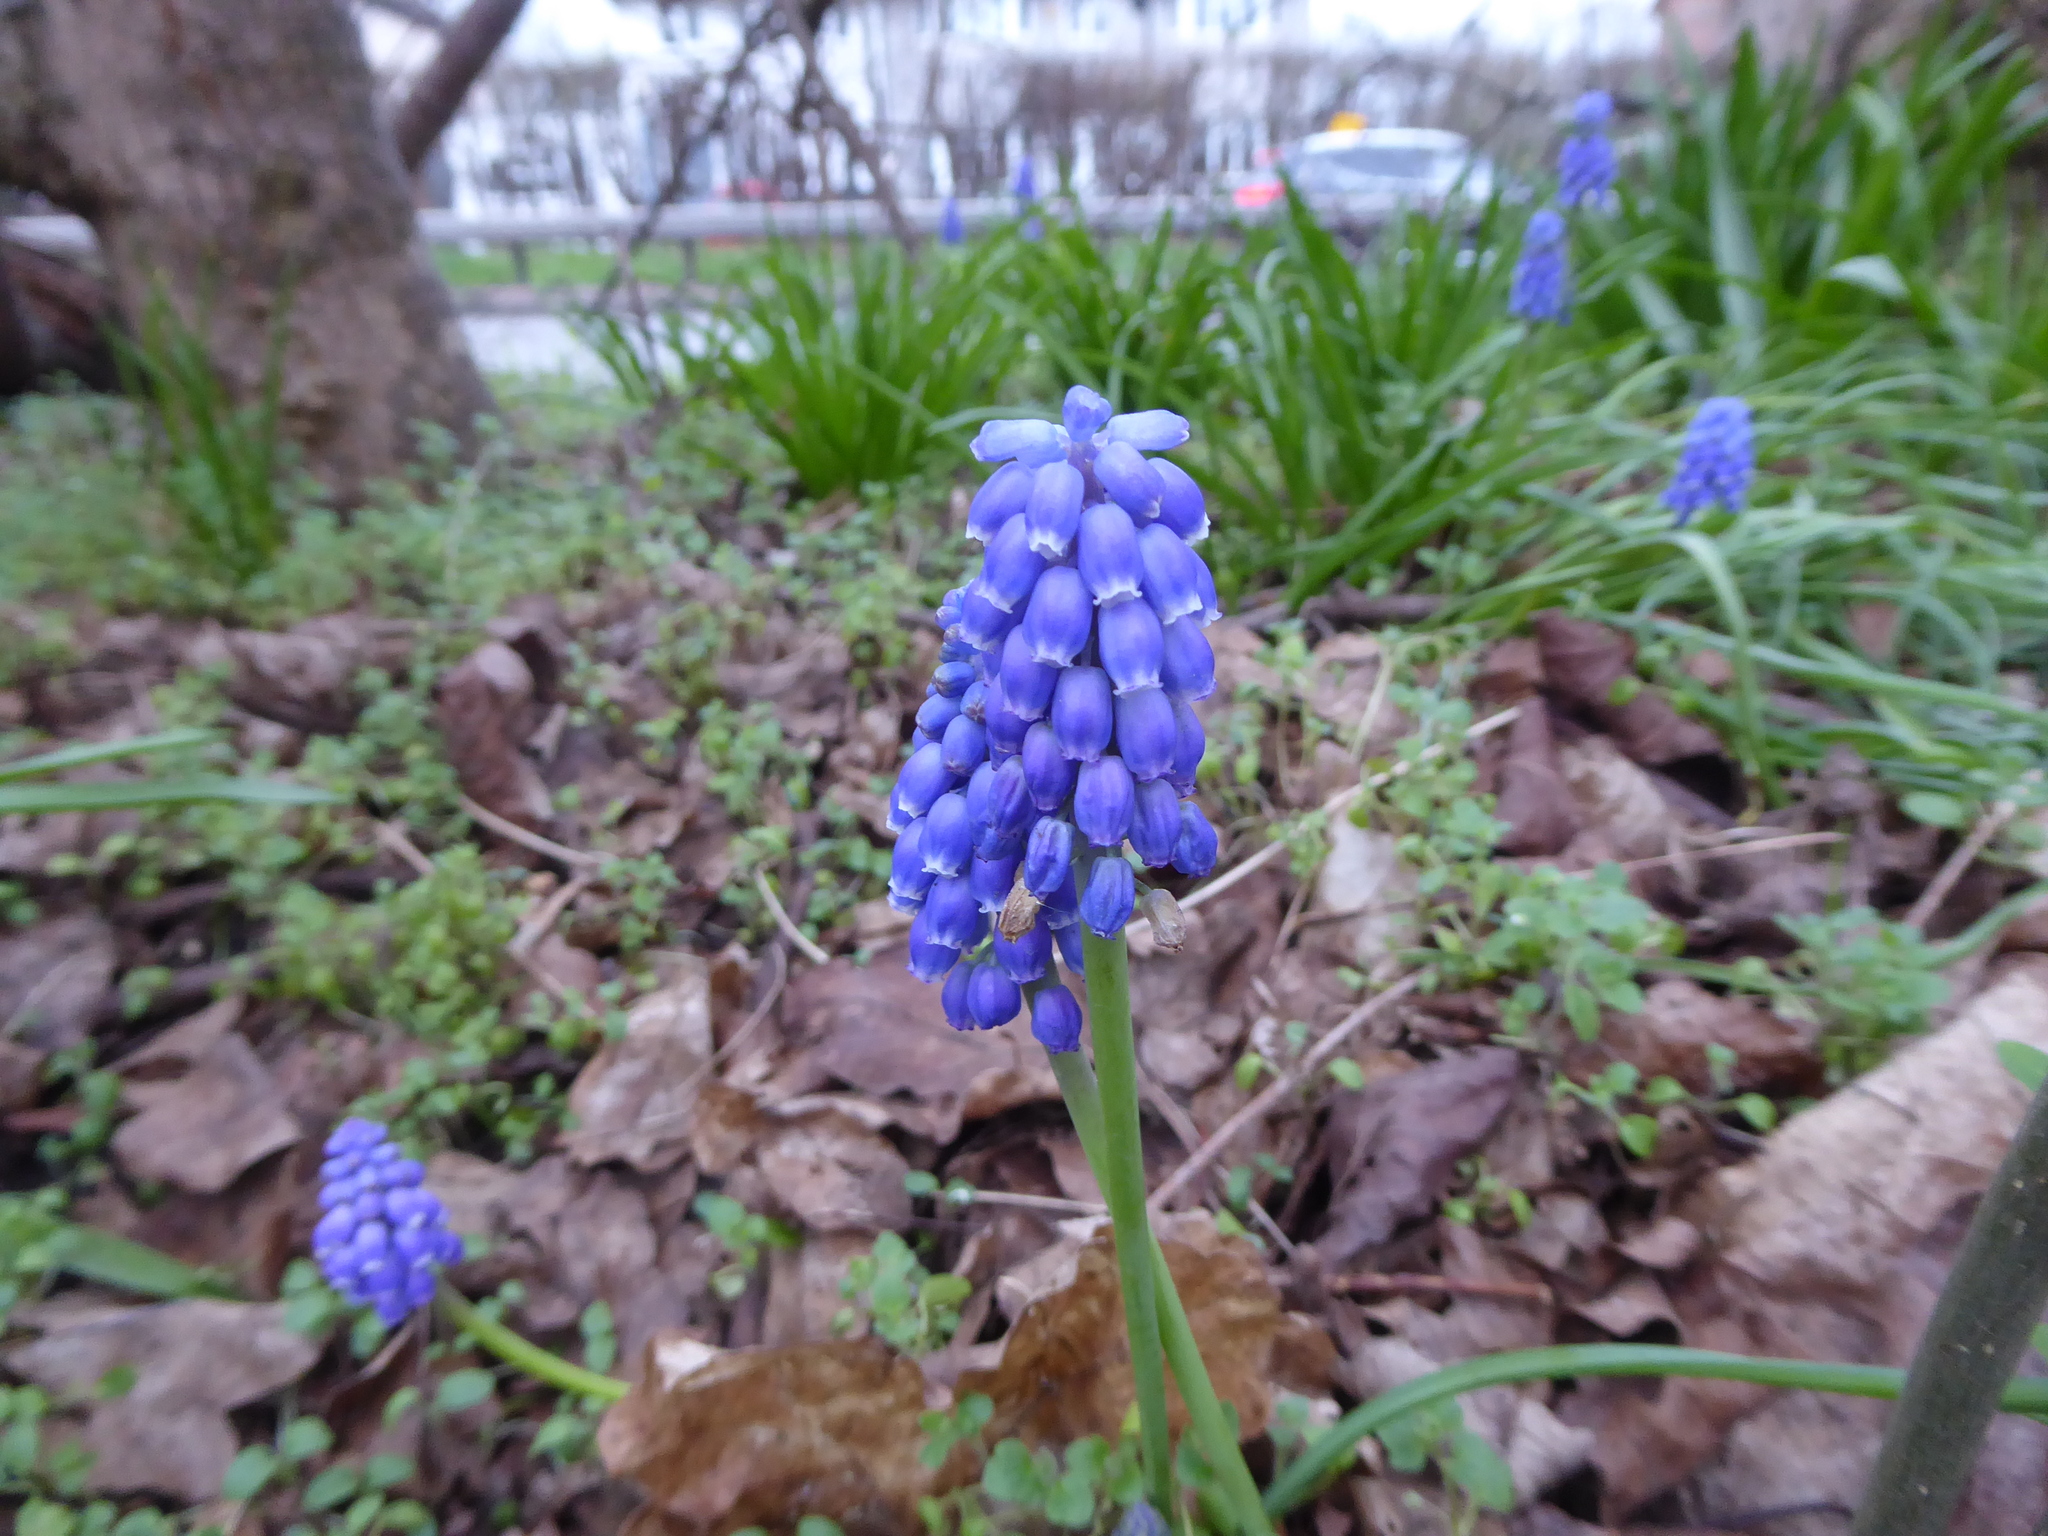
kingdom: Plantae
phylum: Tracheophyta
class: Liliopsida
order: Asparagales
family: Asparagaceae
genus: Muscari
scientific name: Muscari armeniacum
